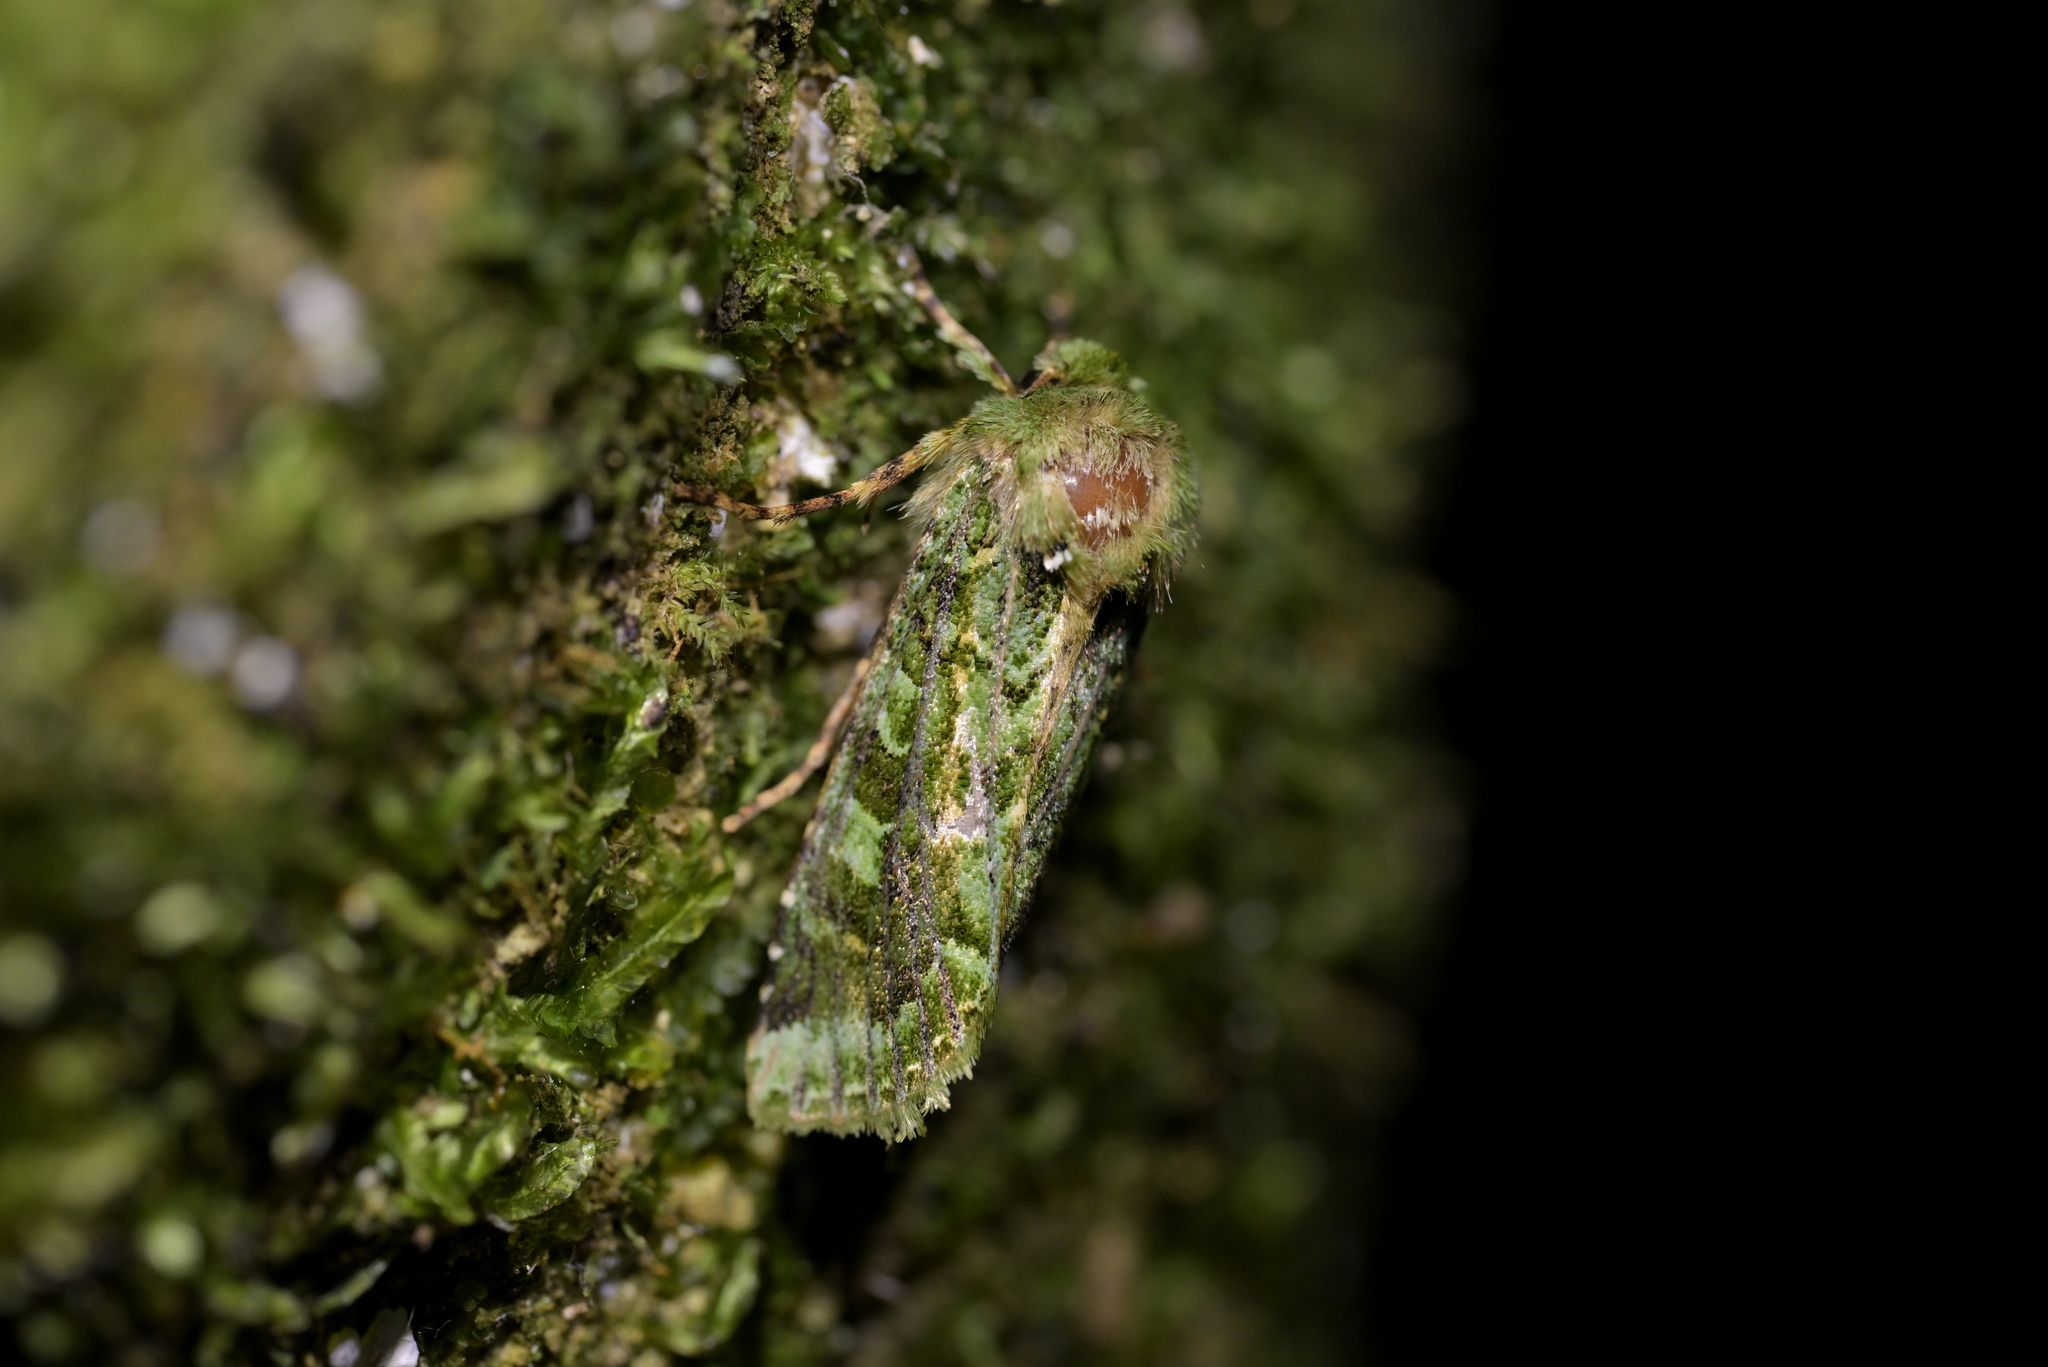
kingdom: Animalia
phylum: Arthropoda
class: Insecta
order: Lepidoptera
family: Noctuidae
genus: Feredayia
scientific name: Feredayia grammosa
